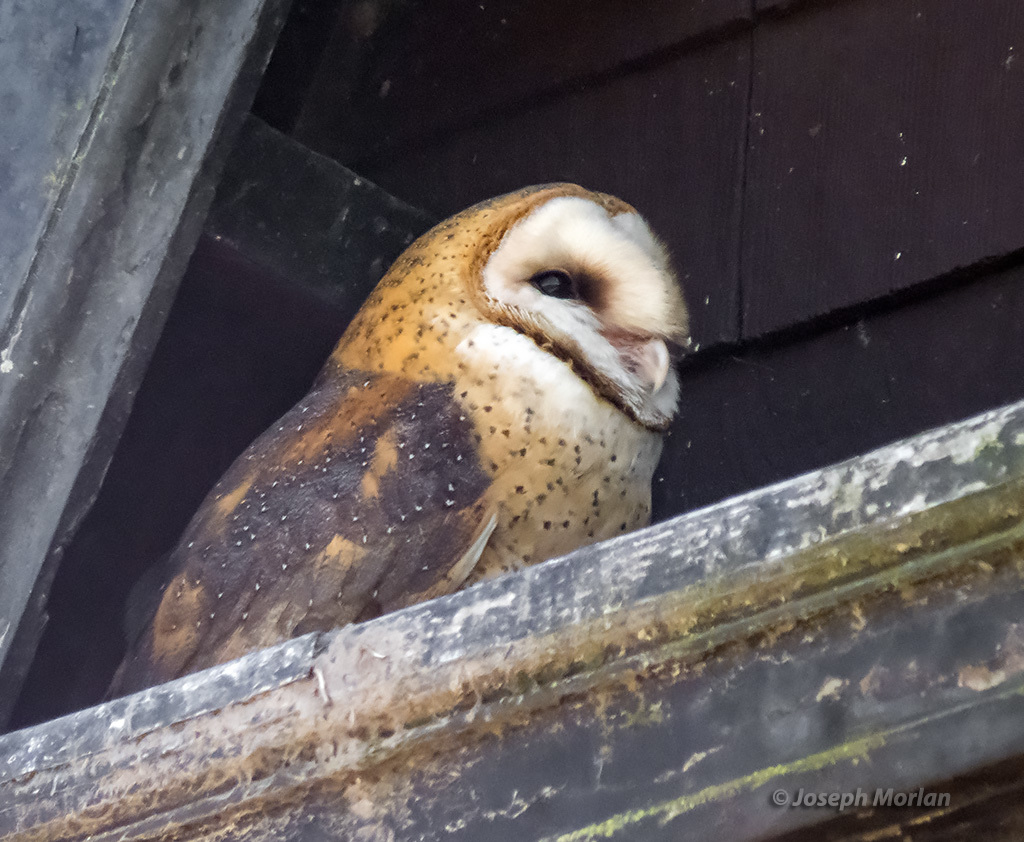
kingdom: Animalia
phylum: Chordata
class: Aves
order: Strigiformes
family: Tytonidae
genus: Tyto
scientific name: Tyto alba
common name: Barn owl
